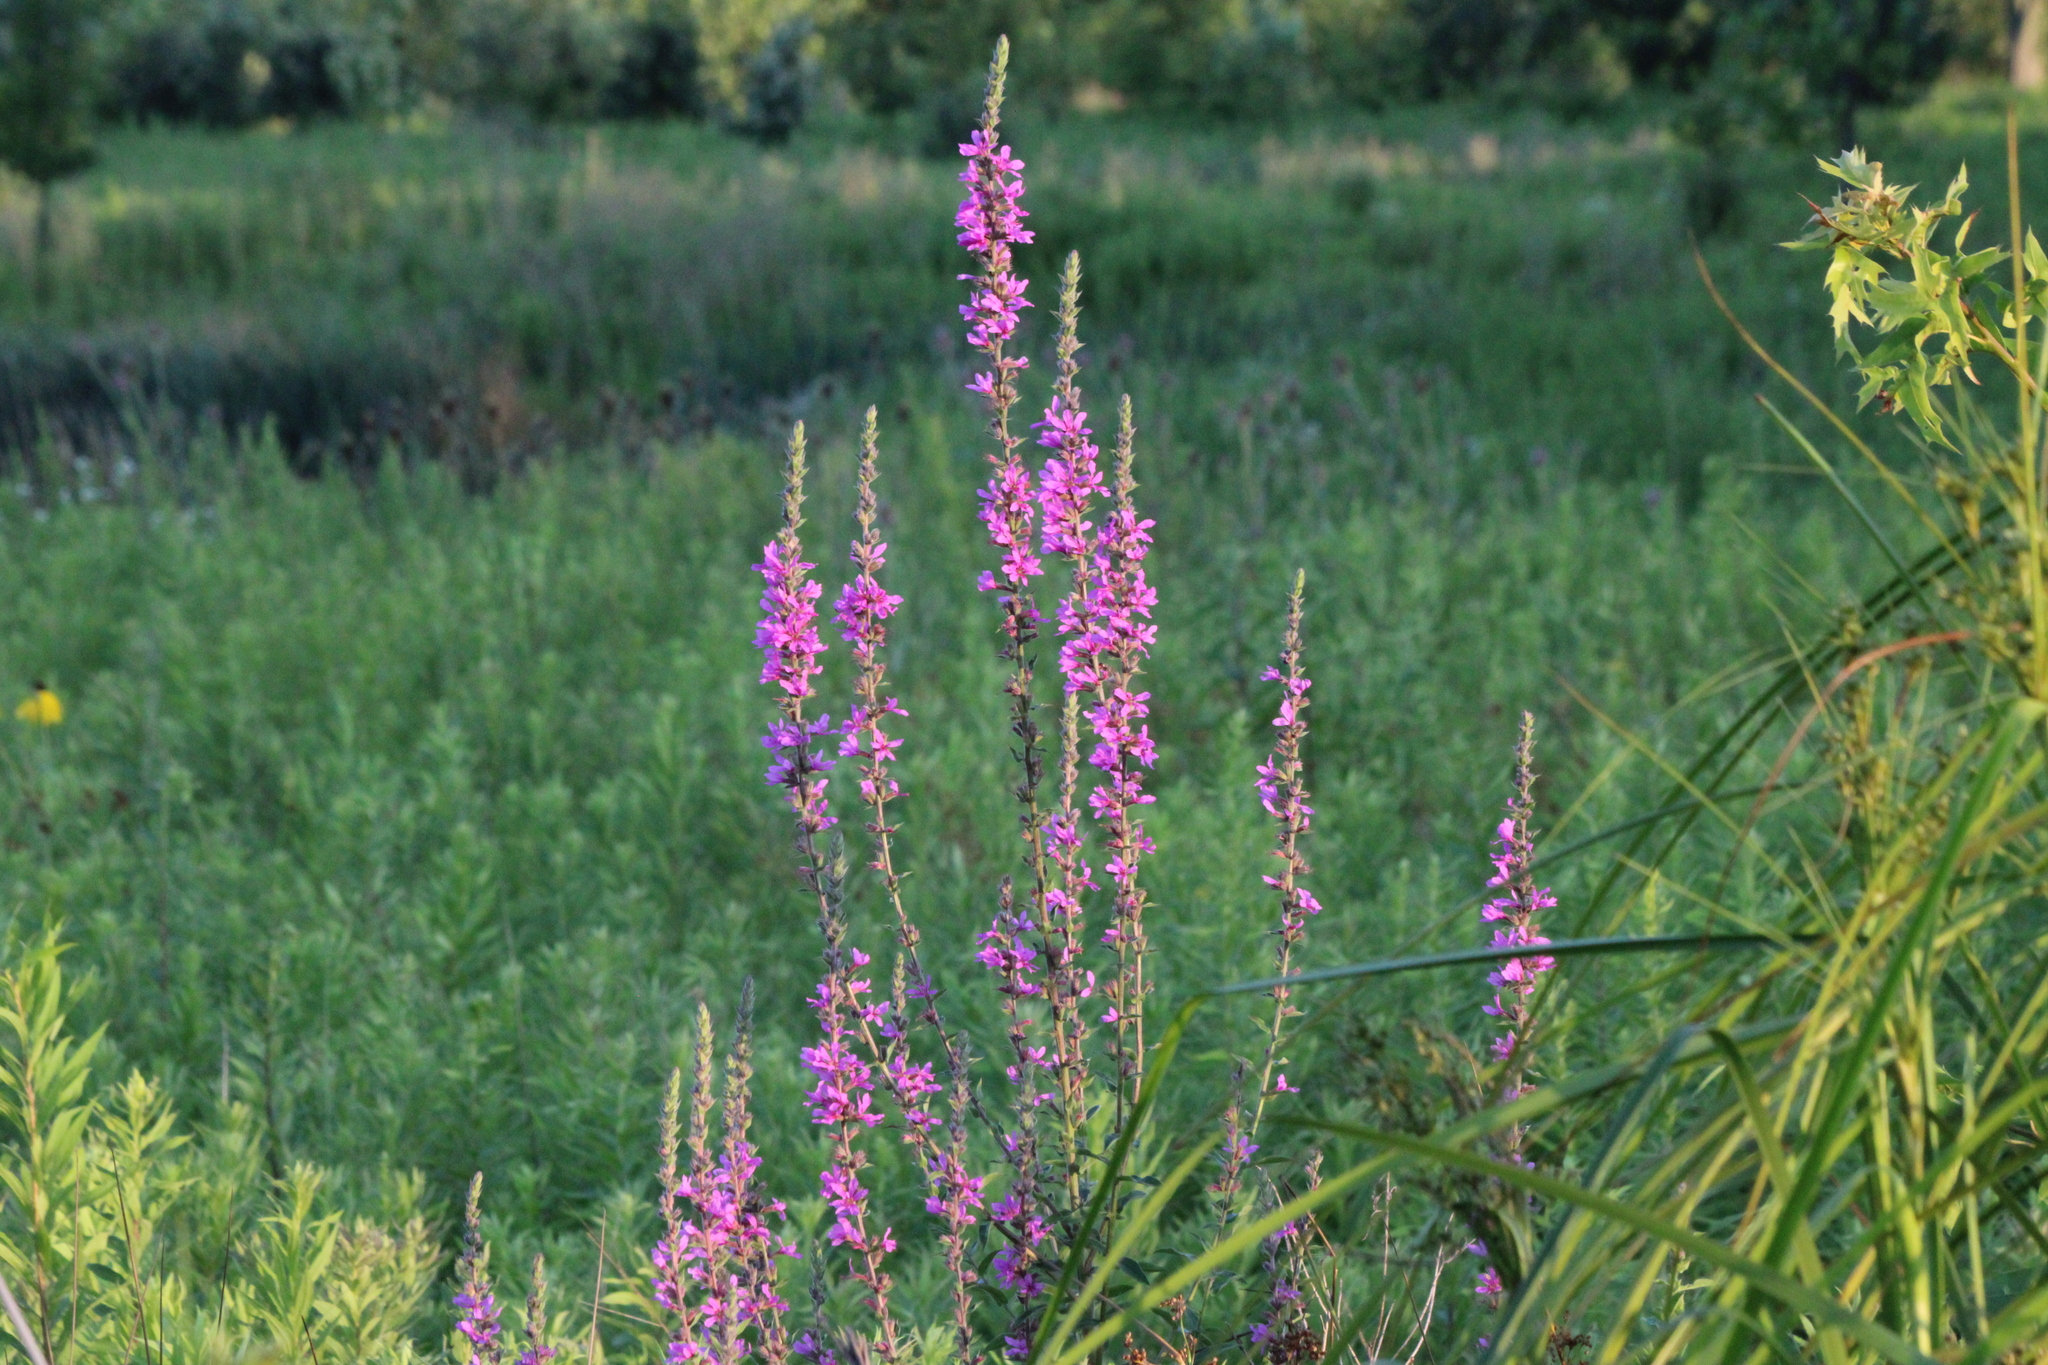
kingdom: Plantae
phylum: Tracheophyta
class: Magnoliopsida
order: Myrtales
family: Lythraceae
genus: Lythrum
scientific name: Lythrum salicaria
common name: Purple loosestrife
